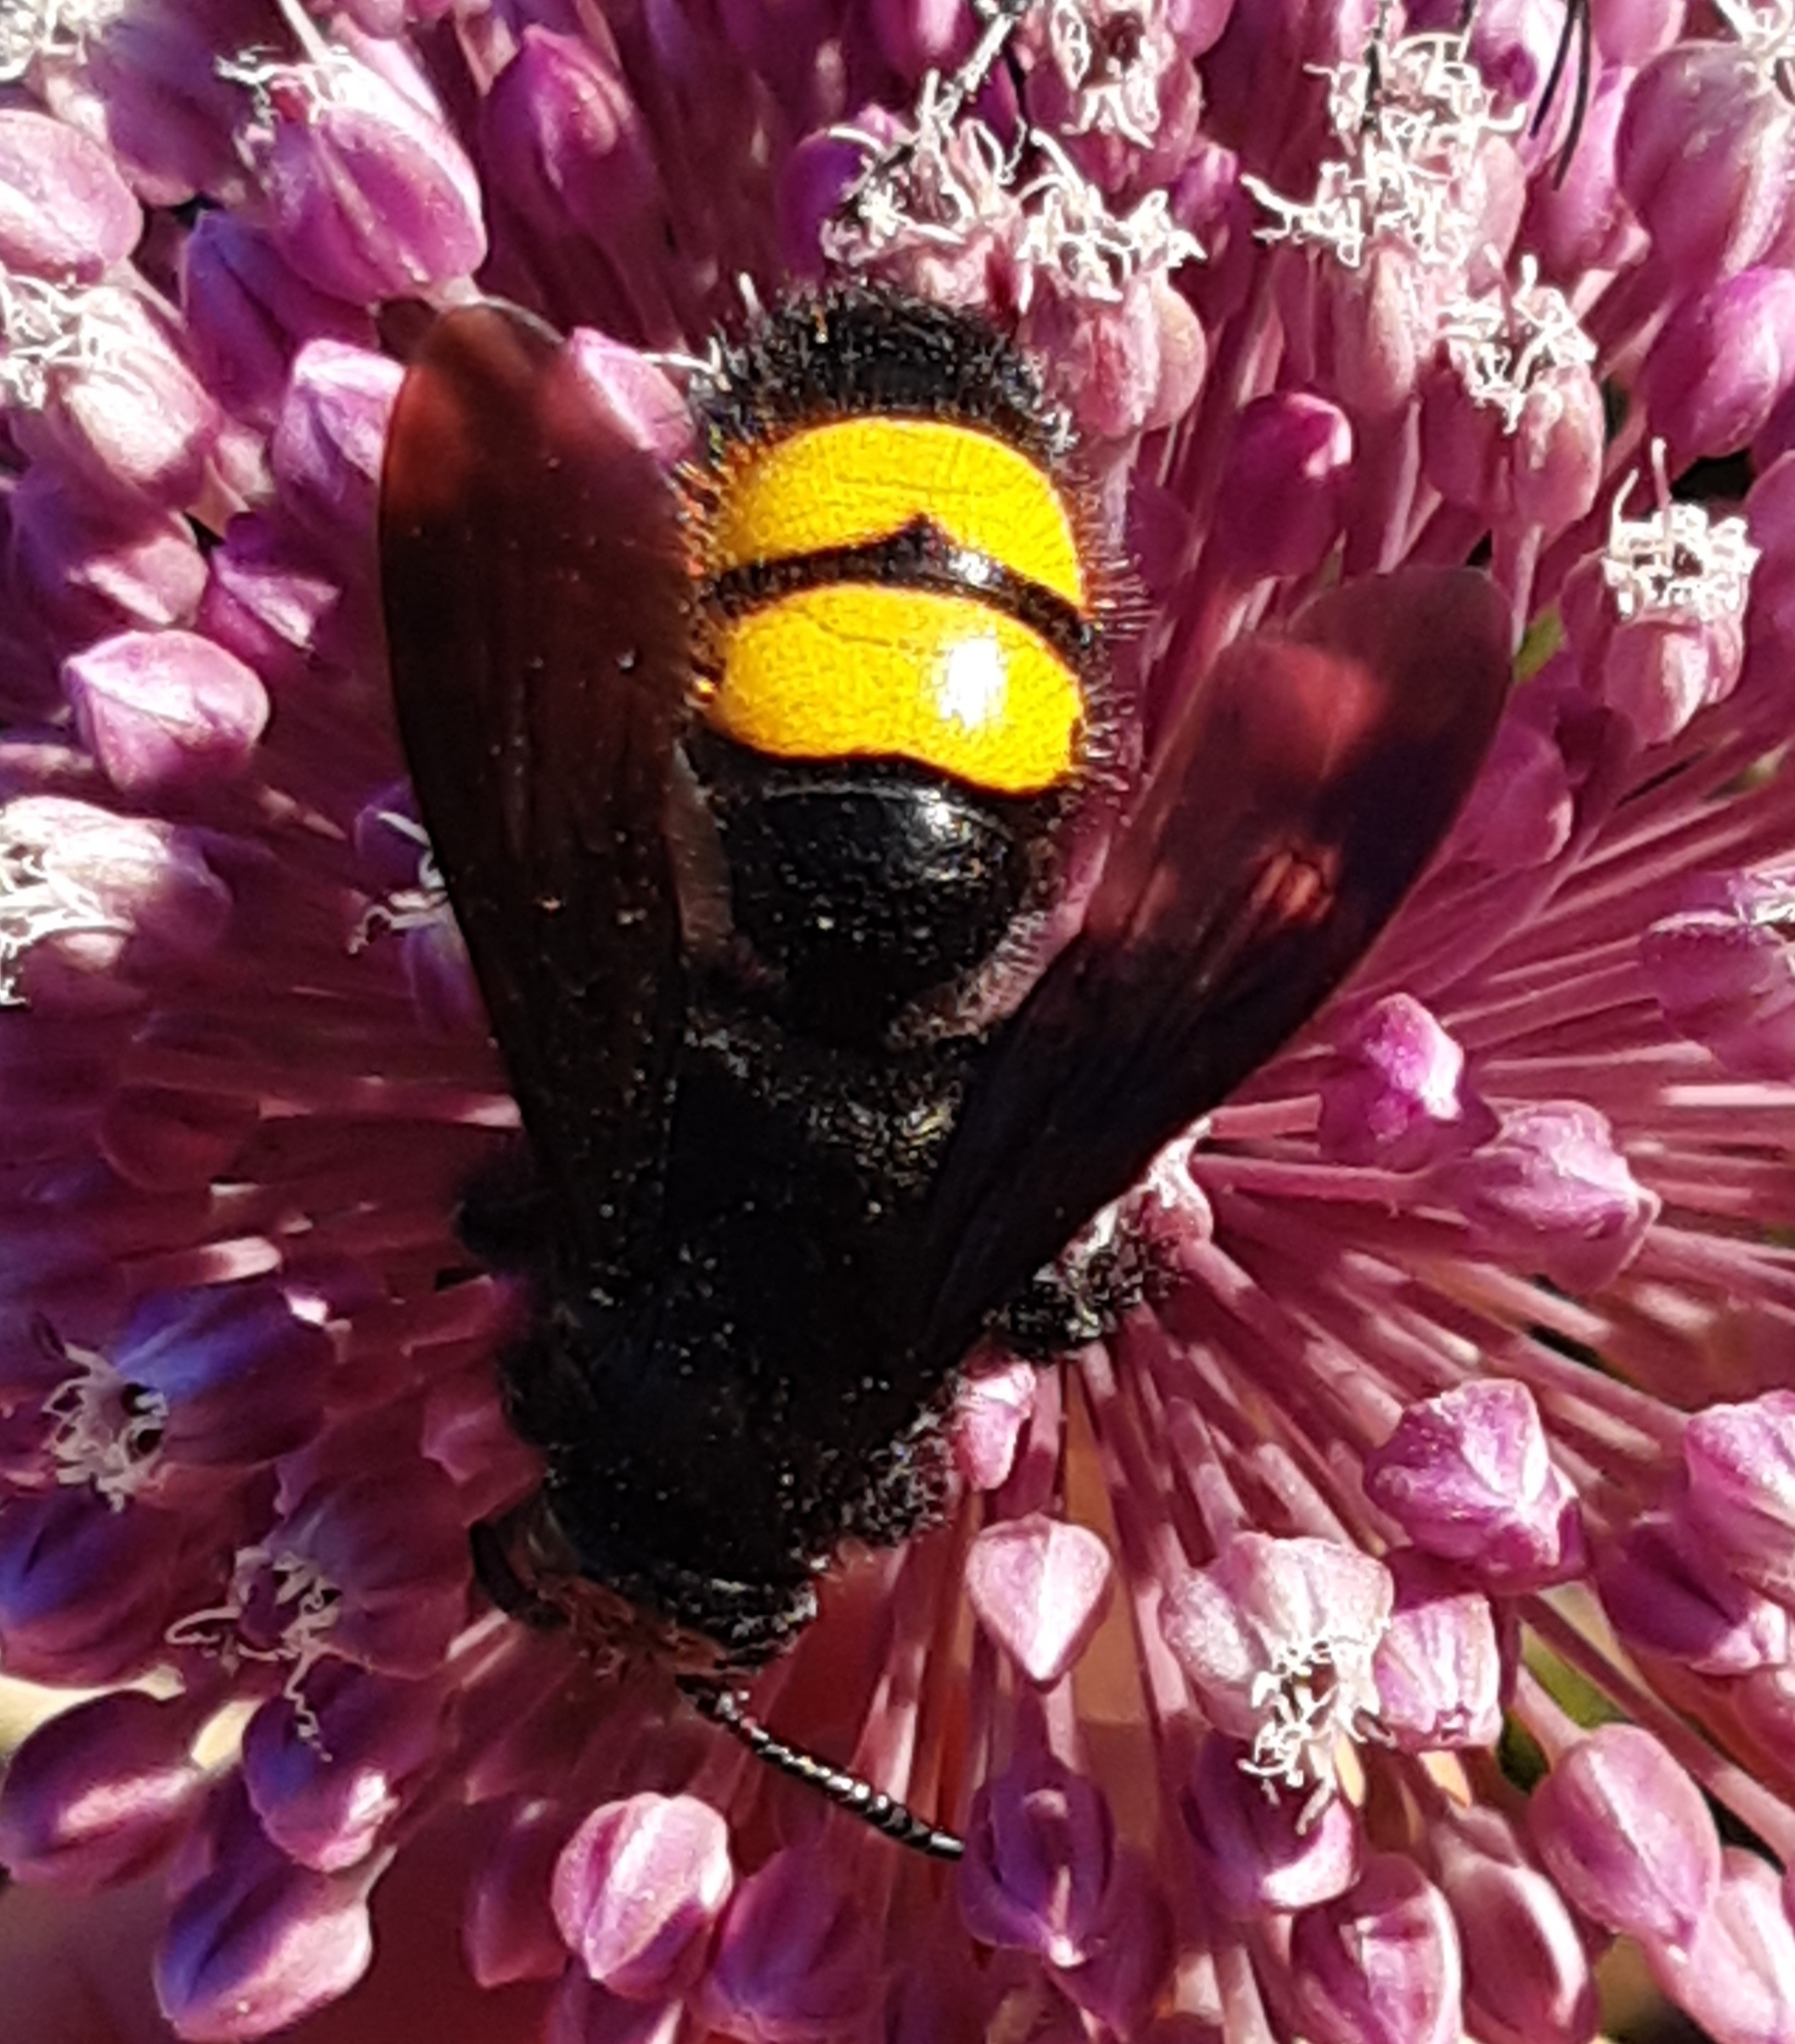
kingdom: Animalia
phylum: Arthropoda
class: Insecta
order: Hymenoptera
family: Scoliidae
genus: Scolia
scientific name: Scolia hirta
